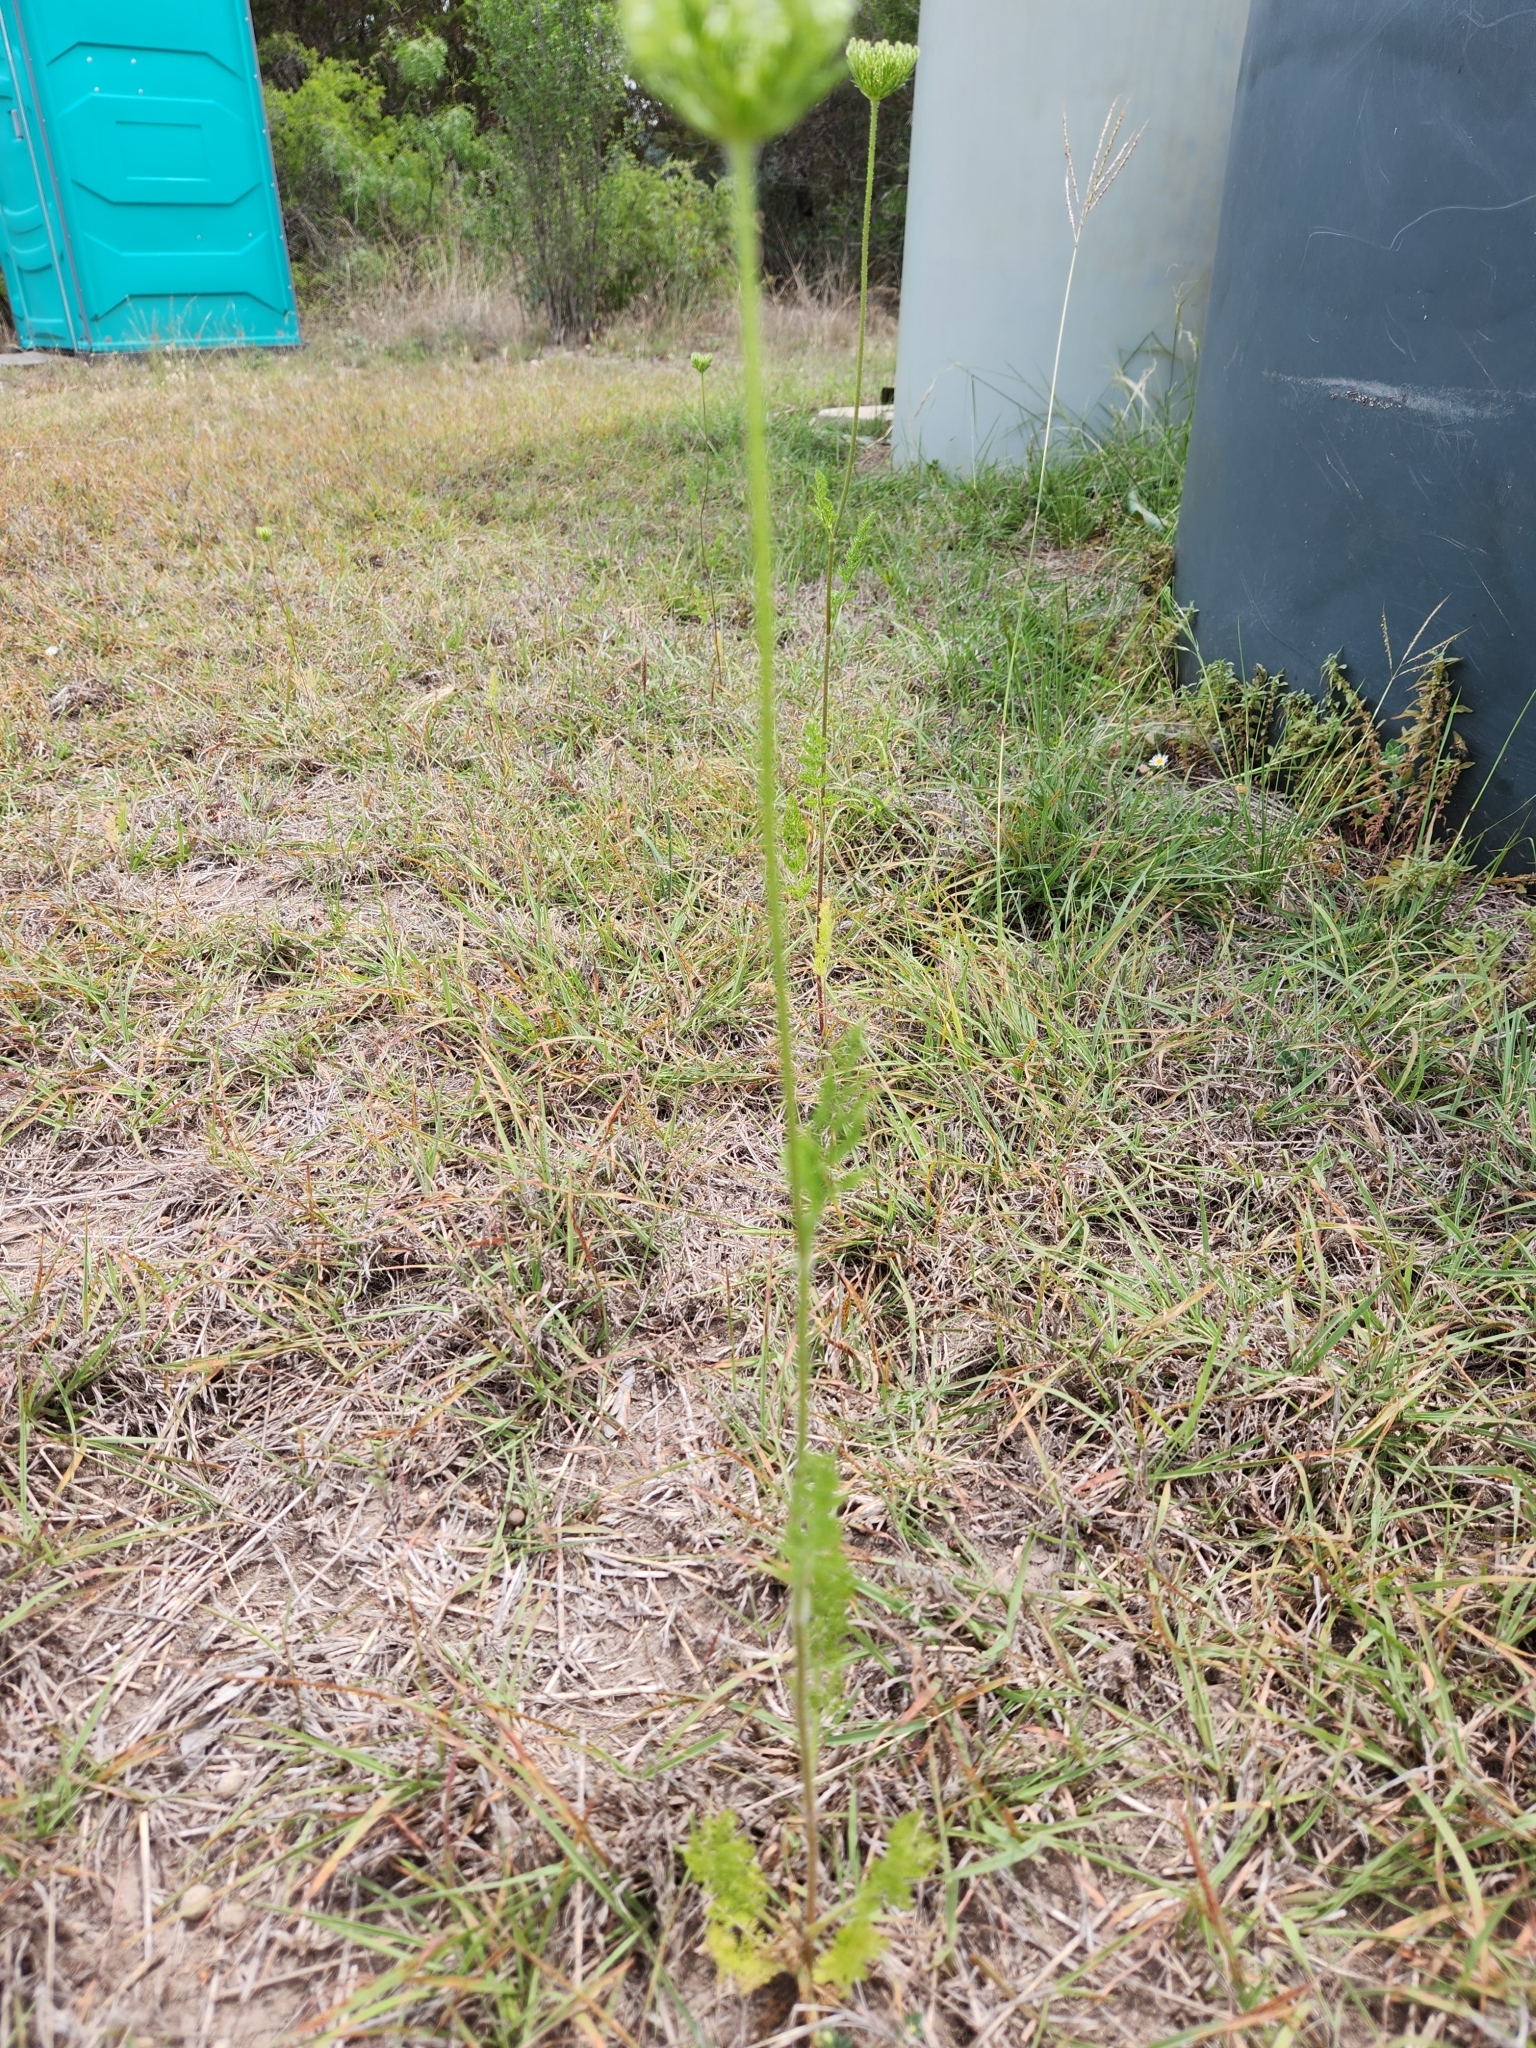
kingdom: Plantae
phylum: Tracheophyta
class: Magnoliopsida
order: Apiales
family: Apiaceae
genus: Daucus
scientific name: Daucus pusillus
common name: Southwest wild carrot
